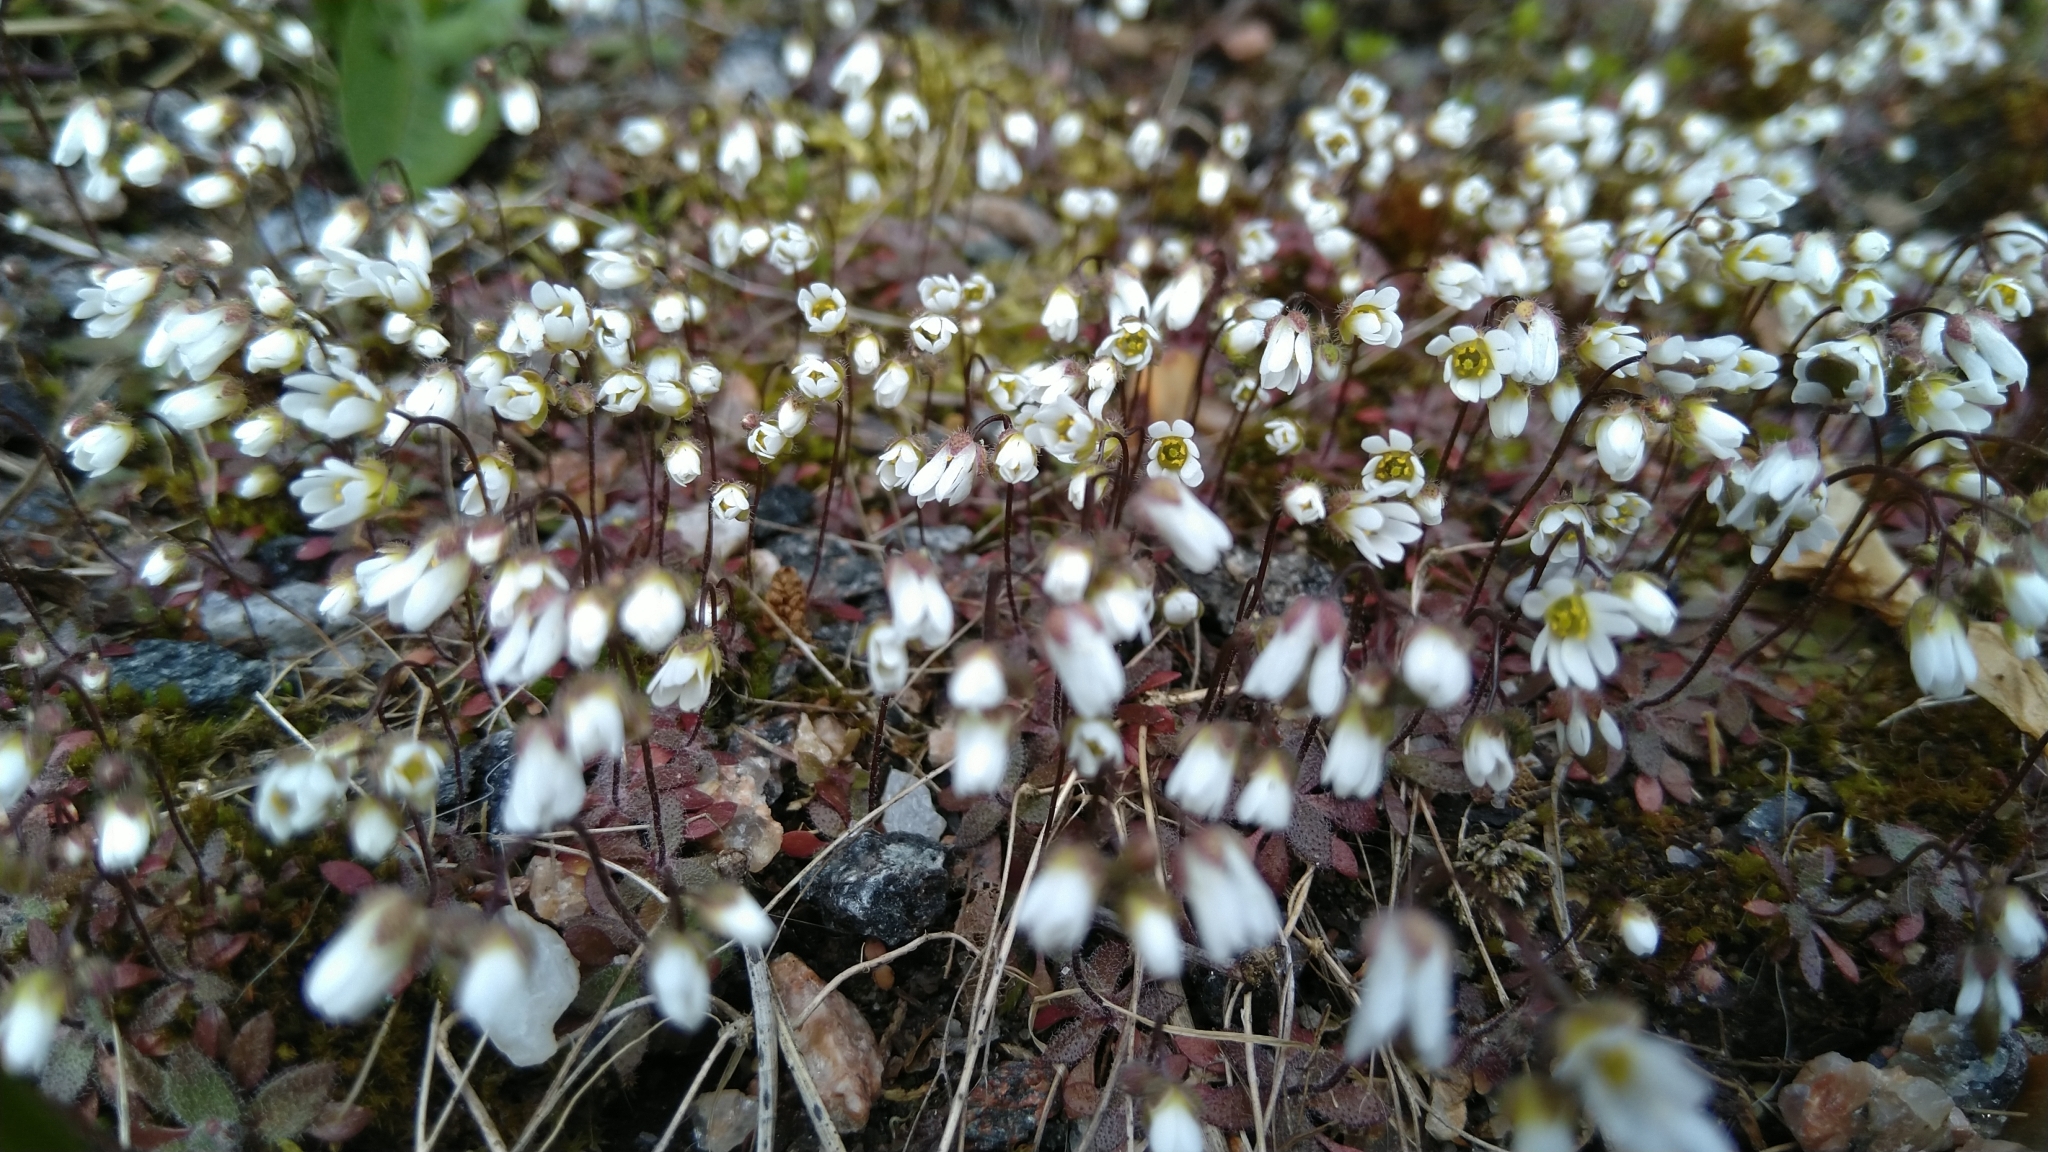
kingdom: Plantae
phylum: Tracheophyta
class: Magnoliopsida
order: Brassicales
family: Brassicaceae
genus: Draba
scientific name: Draba verna
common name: Spring draba
